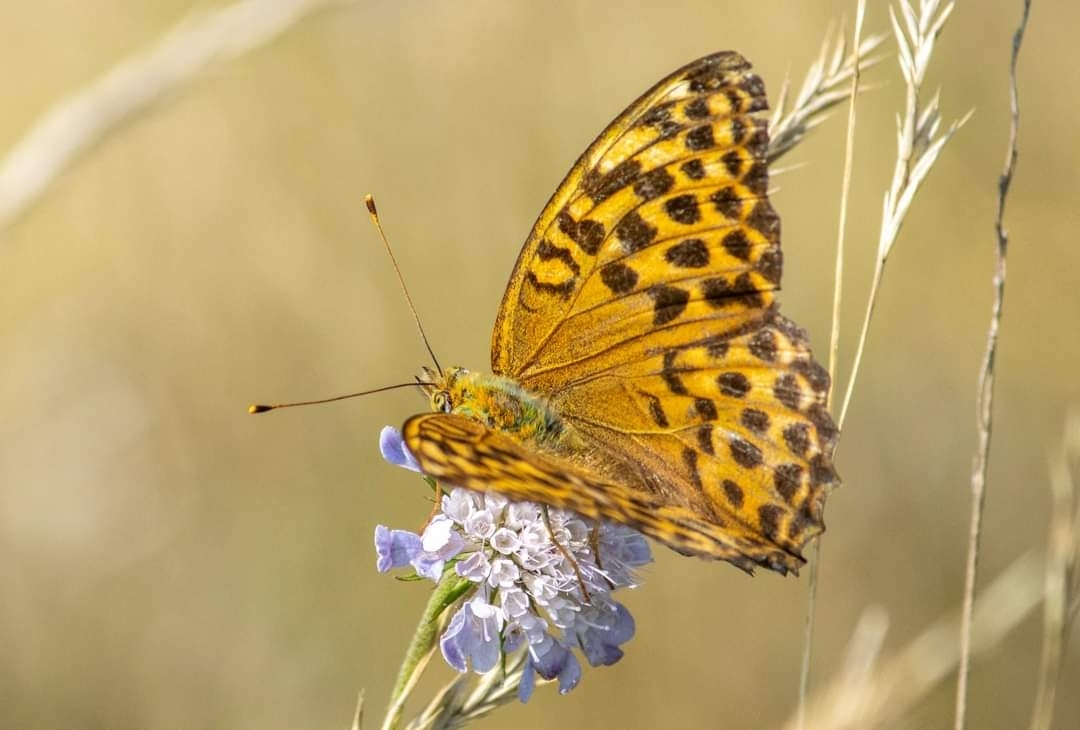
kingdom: Animalia
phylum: Arthropoda
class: Insecta
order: Lepidoptera
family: Nymphalidae
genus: Argynnis
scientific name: Argynnis paphia
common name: Silver-washed fritillary
